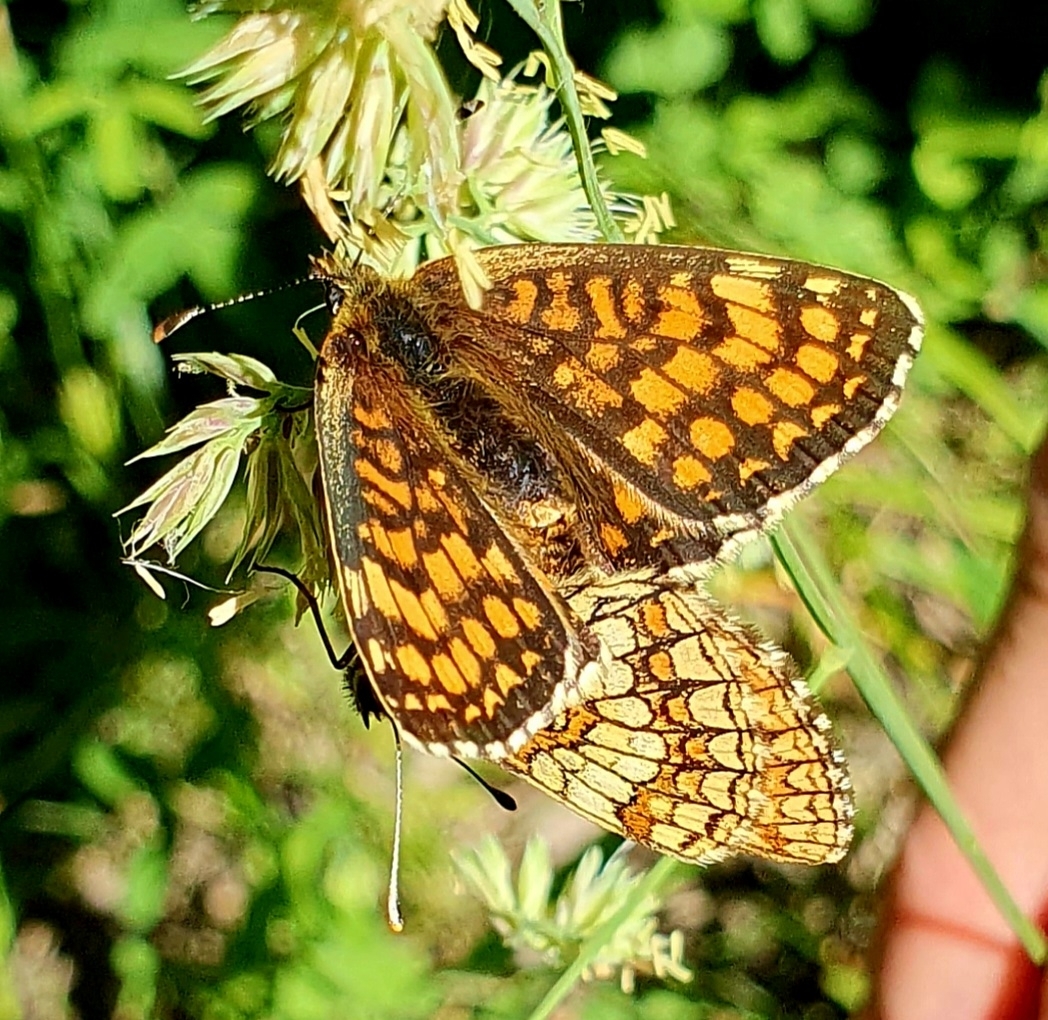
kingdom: Animalia
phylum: Arthropoda
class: Insecta
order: Lepidoptera
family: Nymphalidae
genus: Melitaea
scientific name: Melitaea
